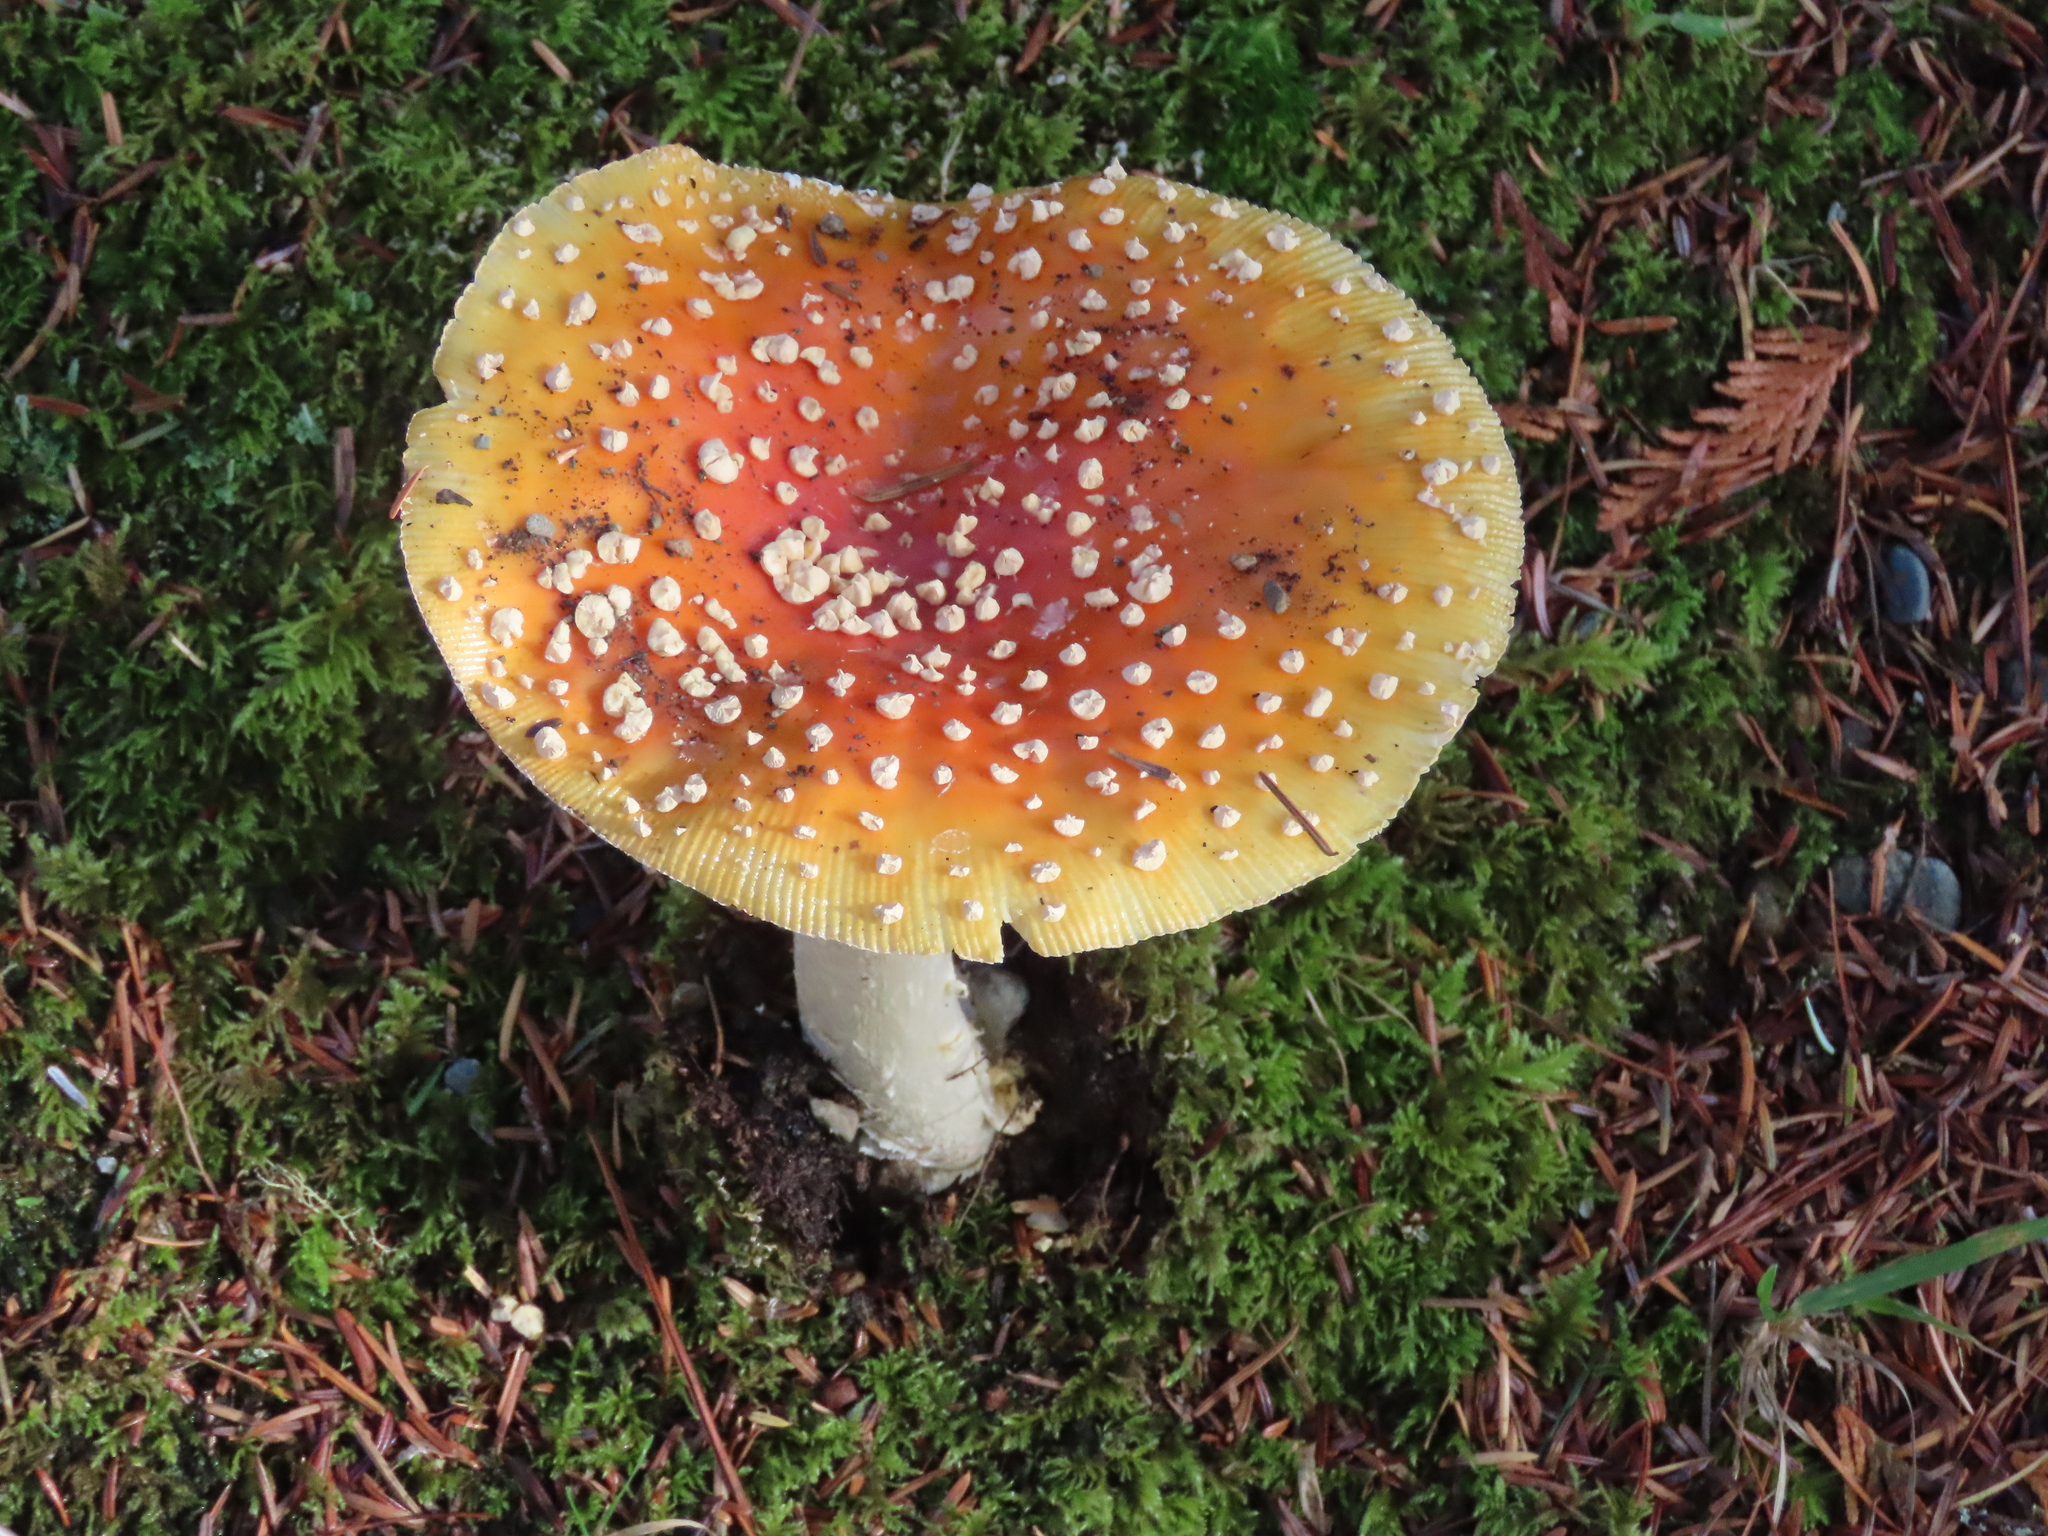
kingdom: Fungi
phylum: Basidiomycota
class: Agaricomycetes
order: Agaricales
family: Amanitaceae
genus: Amanita
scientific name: Amanita muscaria
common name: Fly agaric
